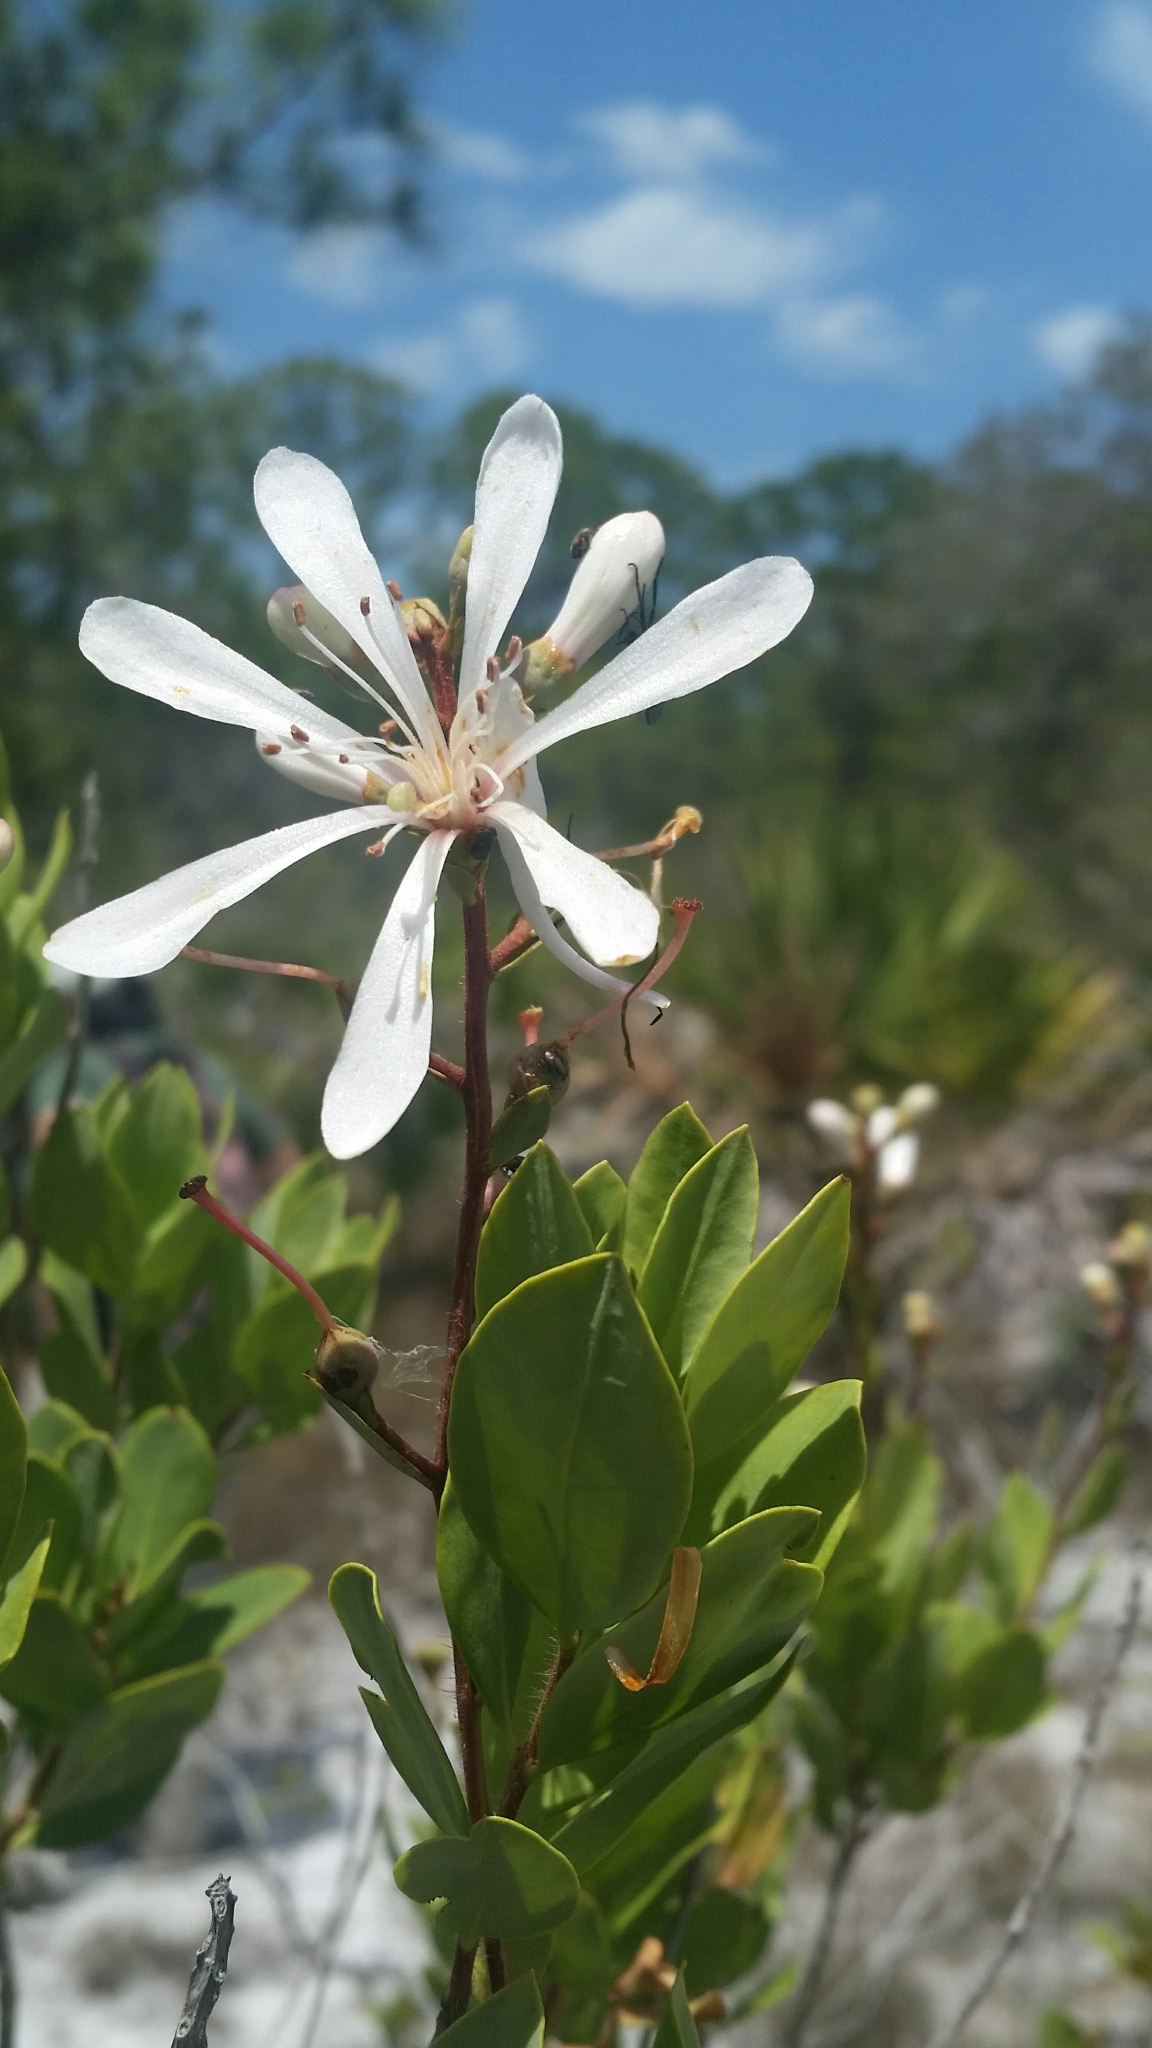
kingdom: Plantae
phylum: Tracheophyta
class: Magnoliopsida
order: Ericales
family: Ericaceae
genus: Bejaria
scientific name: Bejaria racemosa
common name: Tarflower
